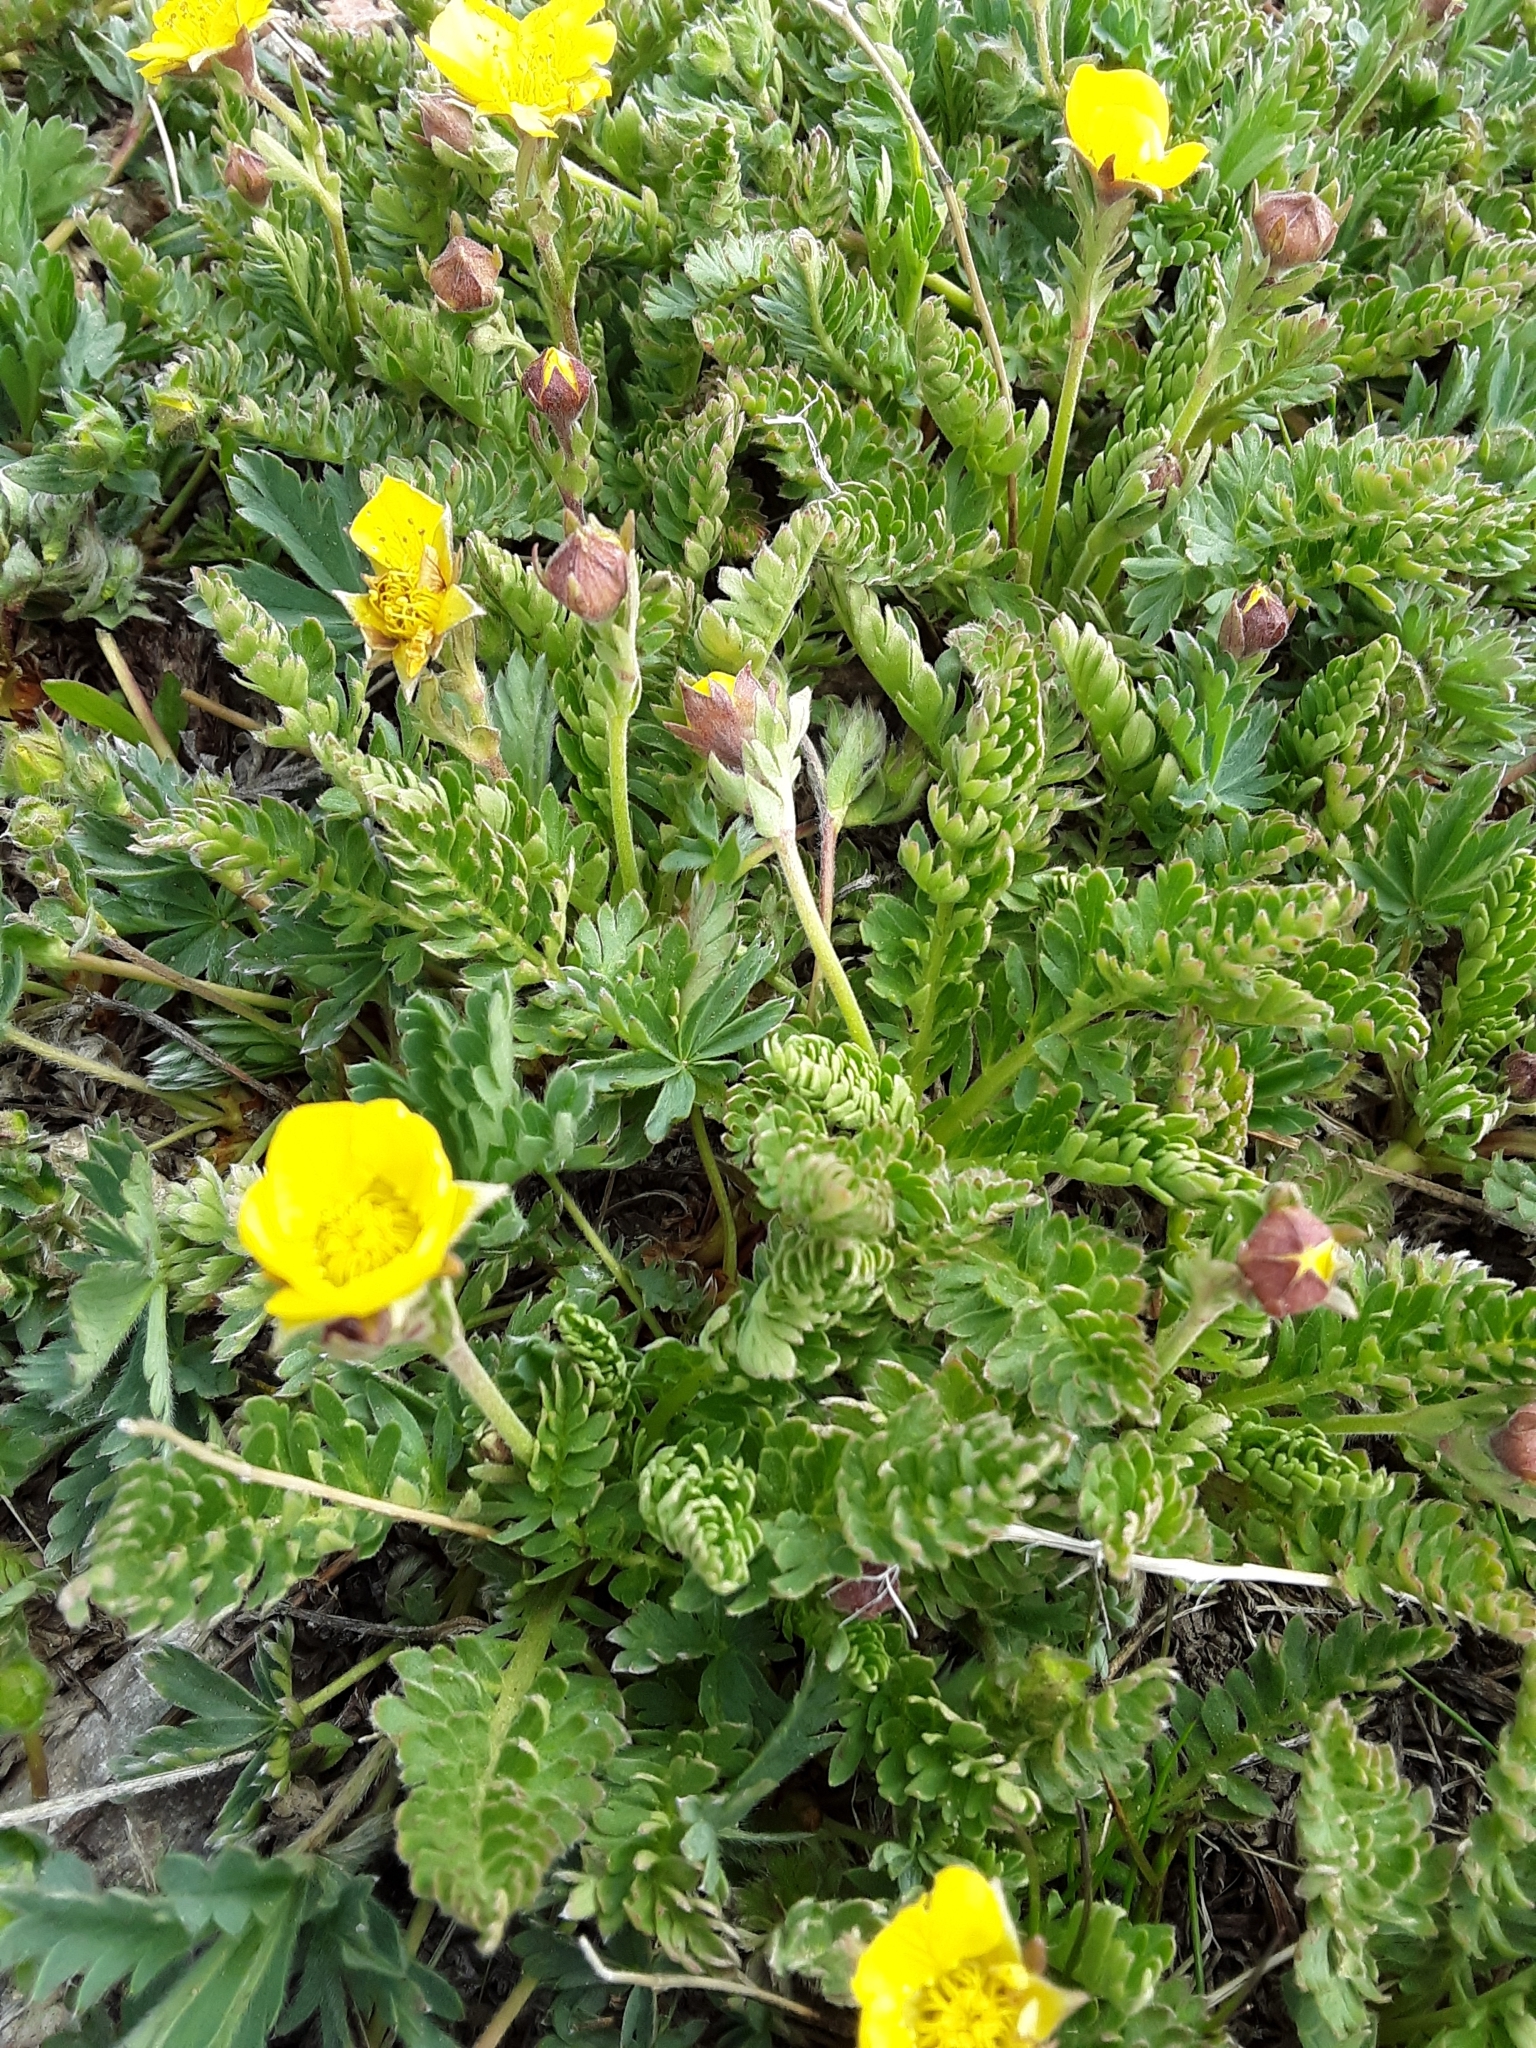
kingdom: Plantae
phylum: Tracheophyta
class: Magnoliopsida
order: Rosales
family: Rosaceae
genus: Geum
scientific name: Geum rossii
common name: Alpine avens
